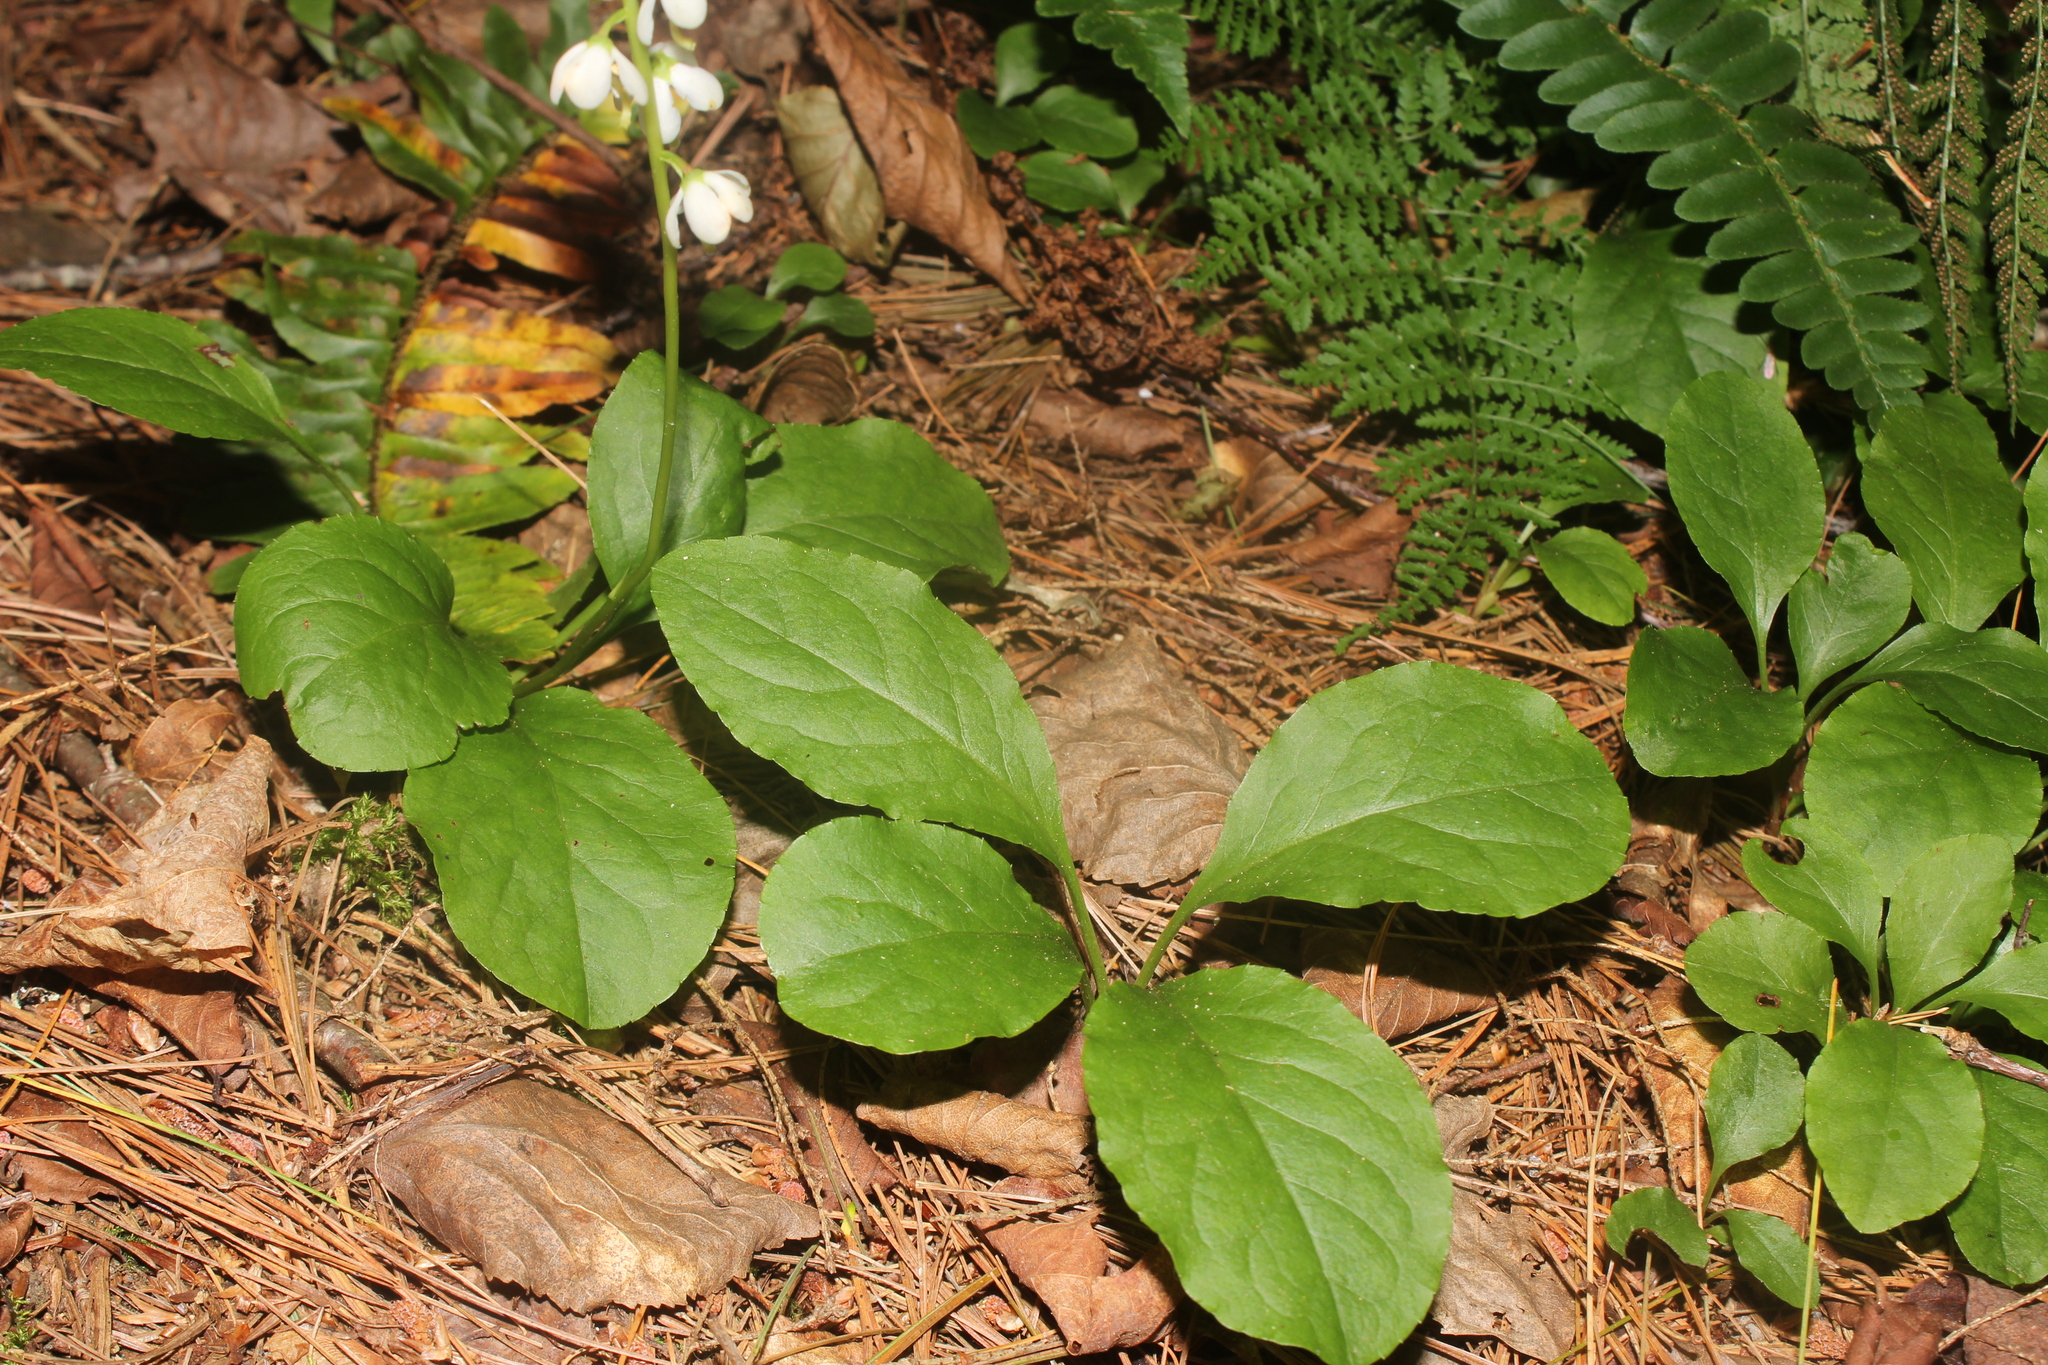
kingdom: Plantae
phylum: Tracheophyta
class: Magnoliopsida
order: Ericales
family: Ericaceae
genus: Pyrola
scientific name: Pyrola elliptica
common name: Shinleaf
